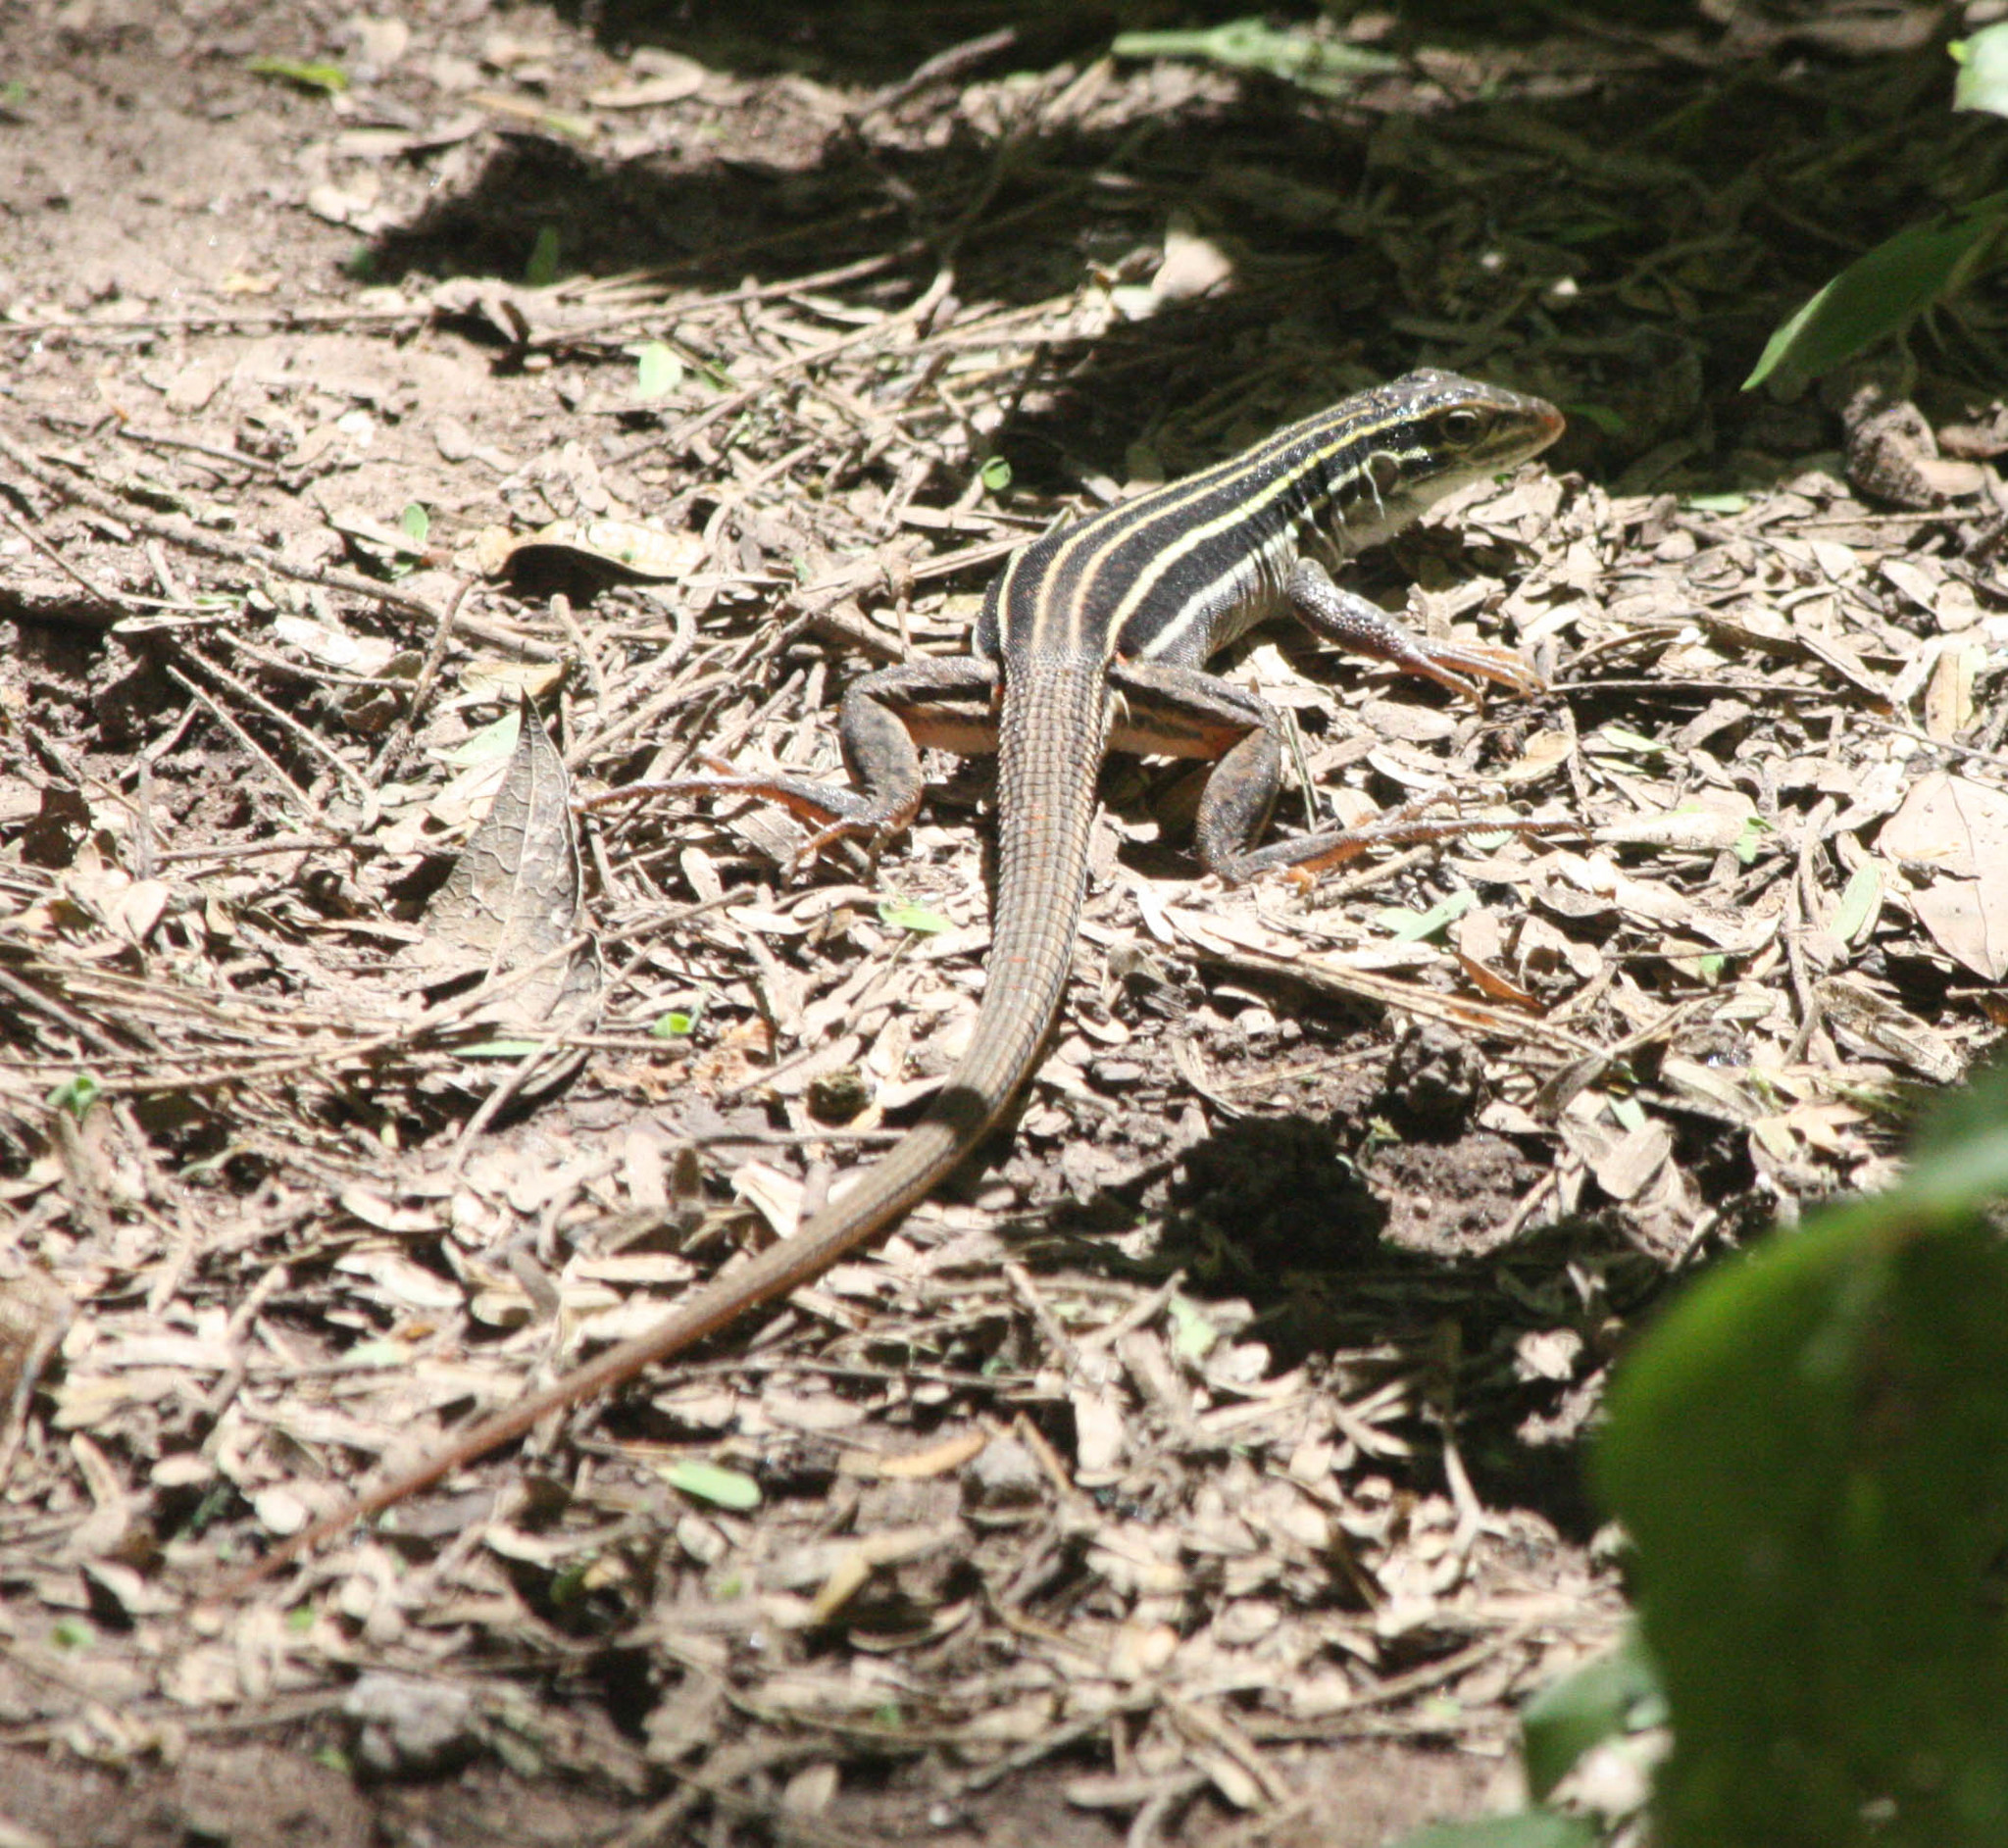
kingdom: Animalia
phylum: Chordata
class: Squamata
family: Teiidae
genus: Aspidoscelis
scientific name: Aspidoscelis uniparens
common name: Desert grassland whiptail
